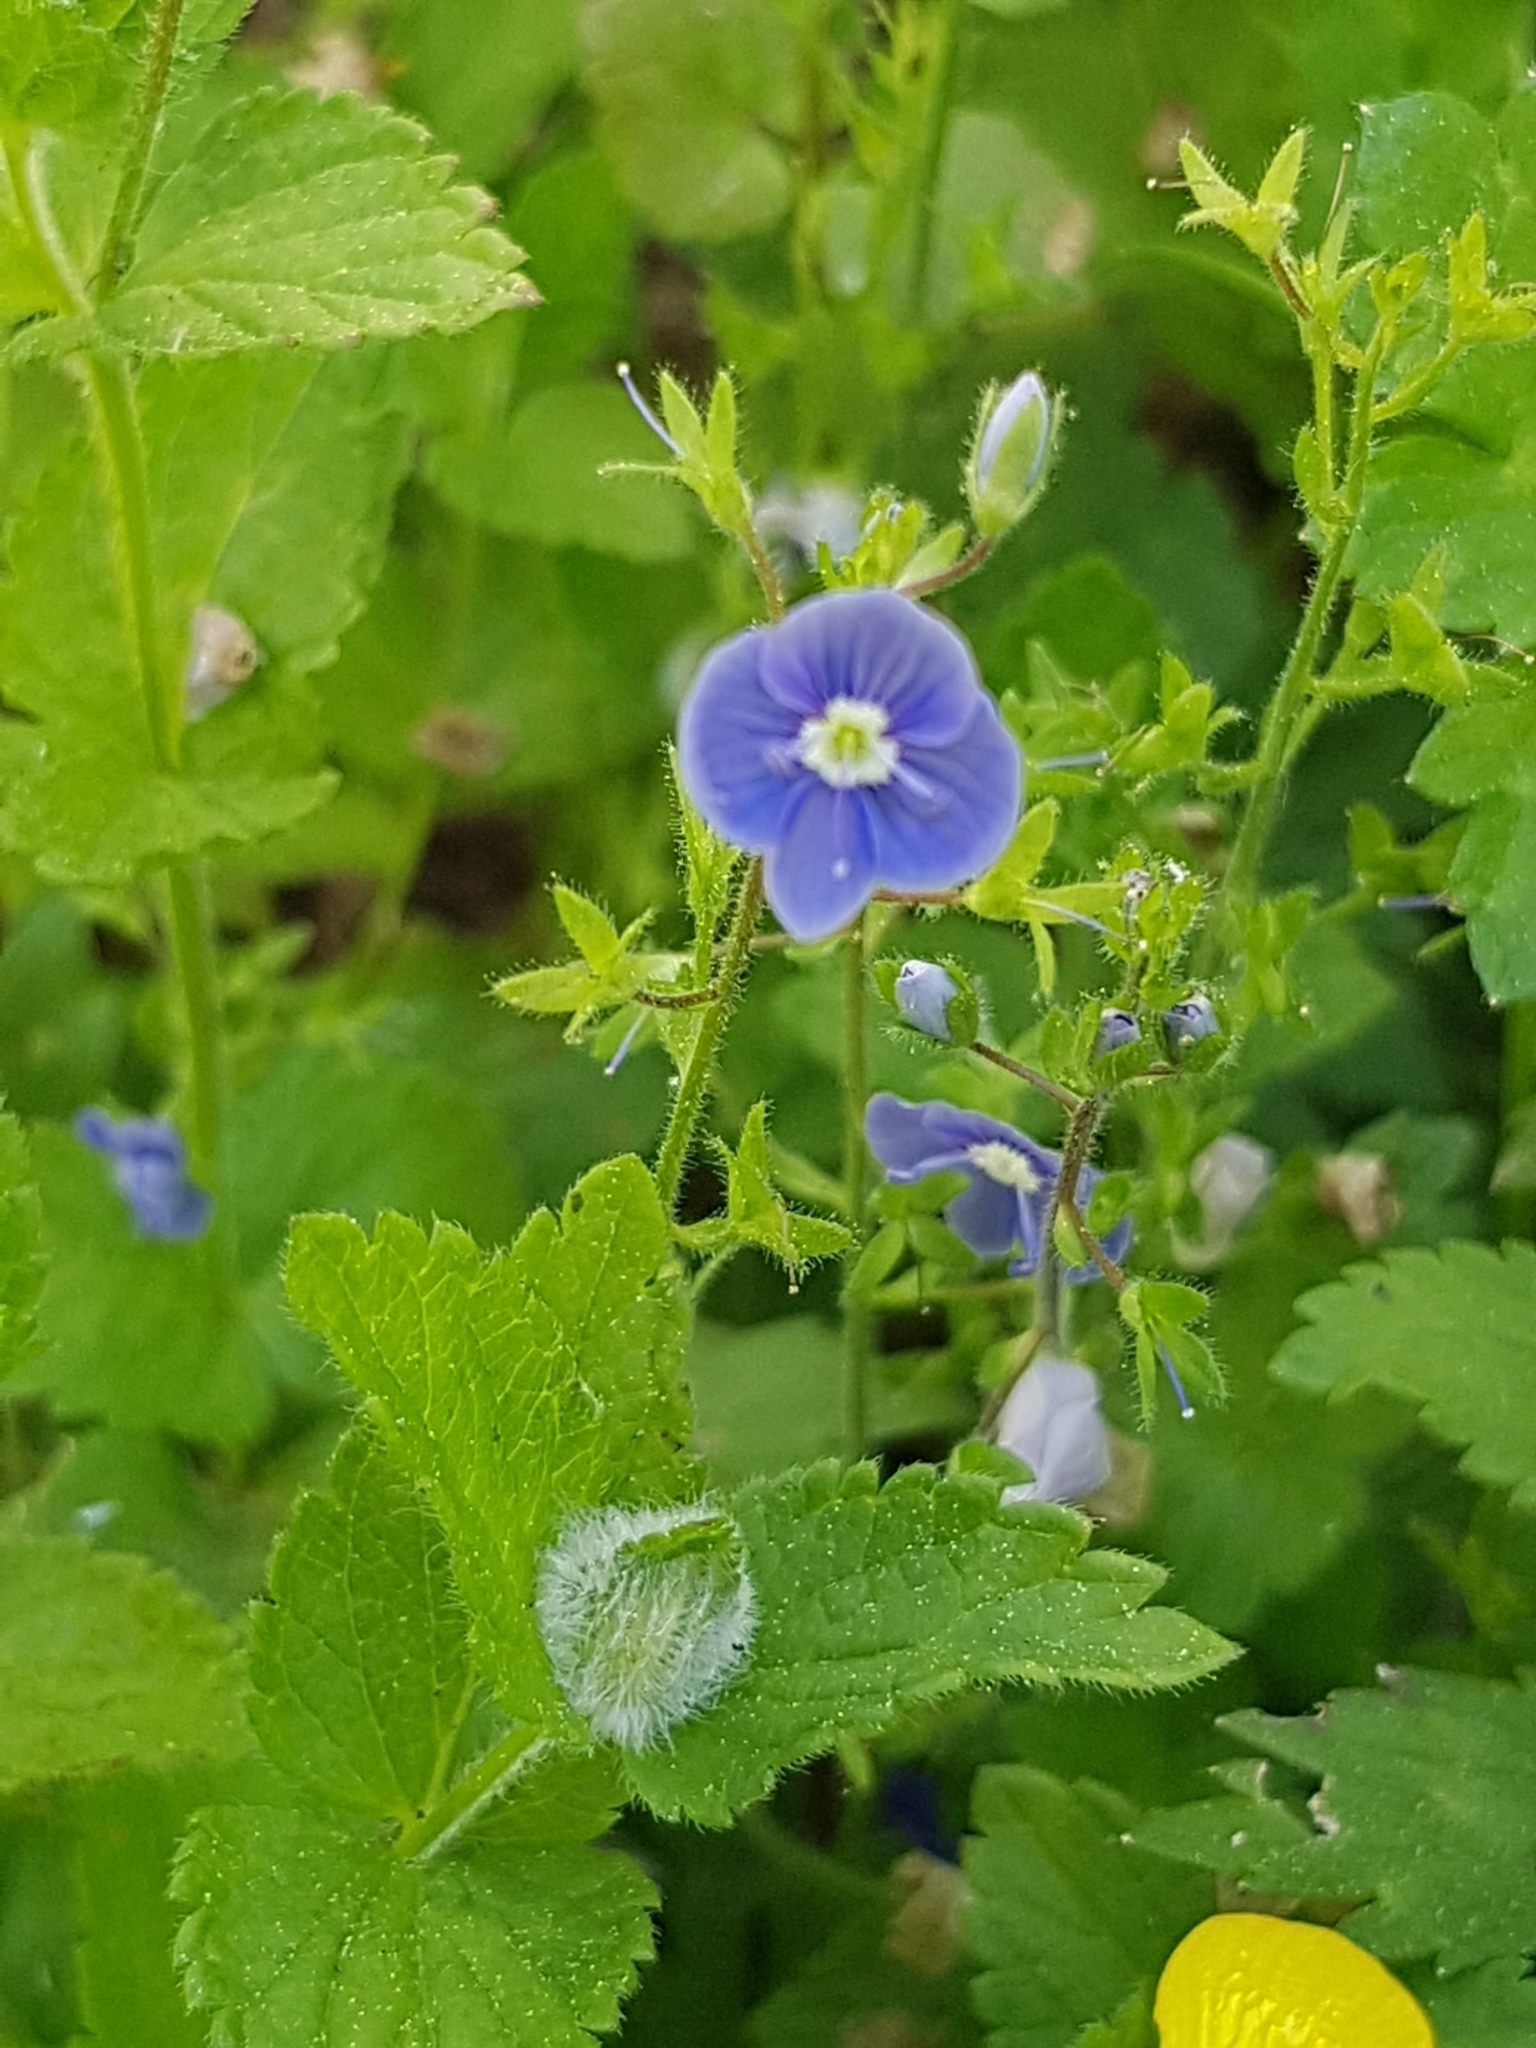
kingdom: Plantae
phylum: Tracheophyta
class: Magnoliopsida
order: Lamiales
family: Plantaginaceae
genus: Veronica
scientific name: Veronica chamaedrys
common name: Germander speedwell
